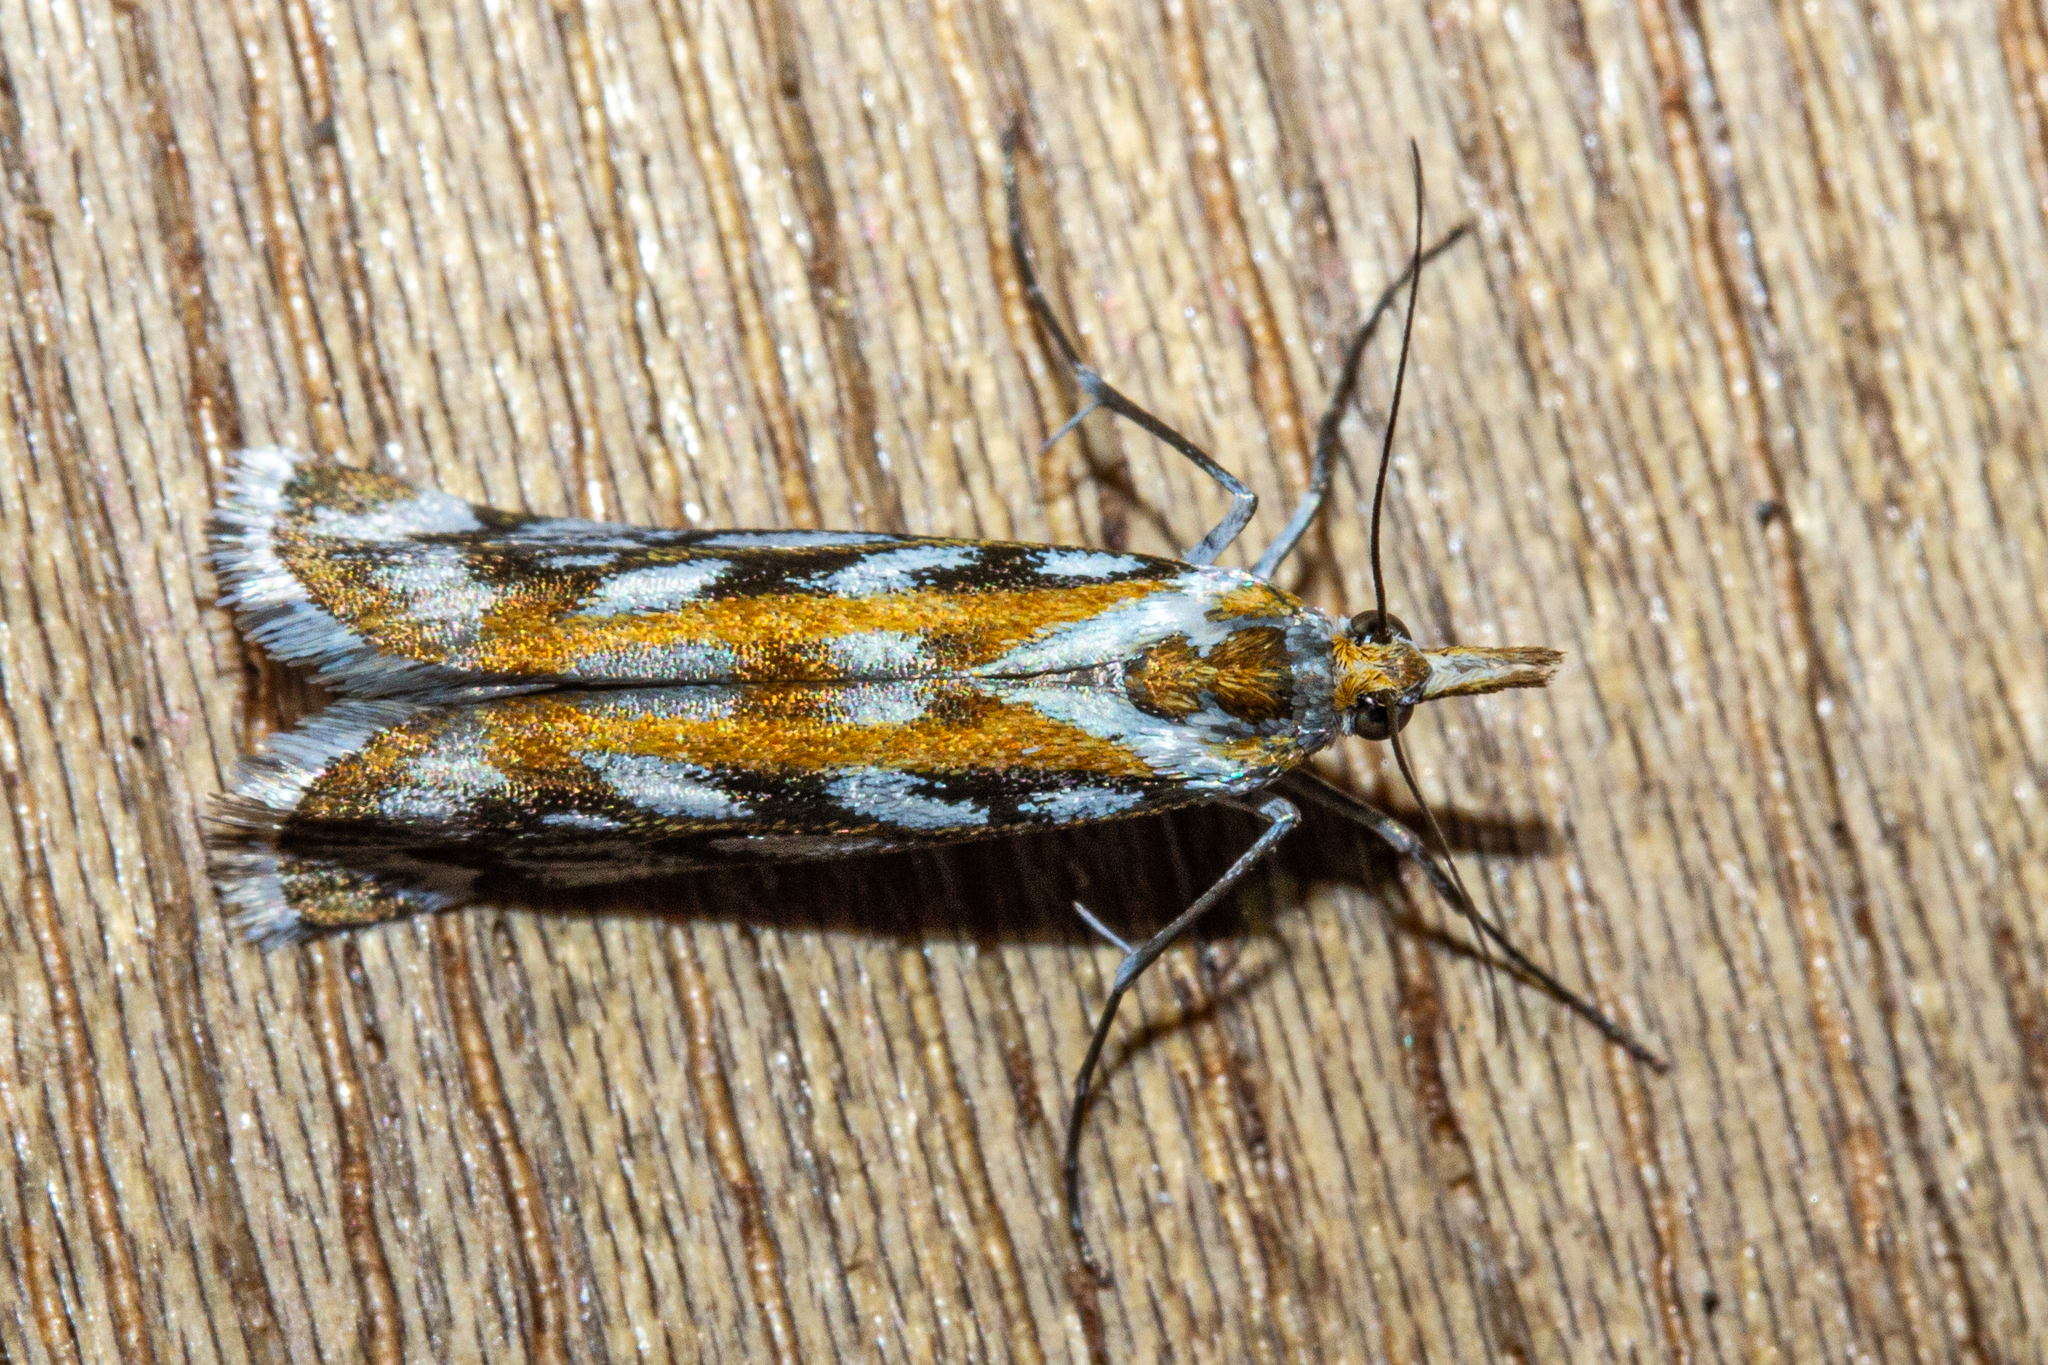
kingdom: Animalia
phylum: Arthropoda
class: Insecta
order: Lepidoptera
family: Crambidae
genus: Orocrambus
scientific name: Orocrambus xanthogrammus
